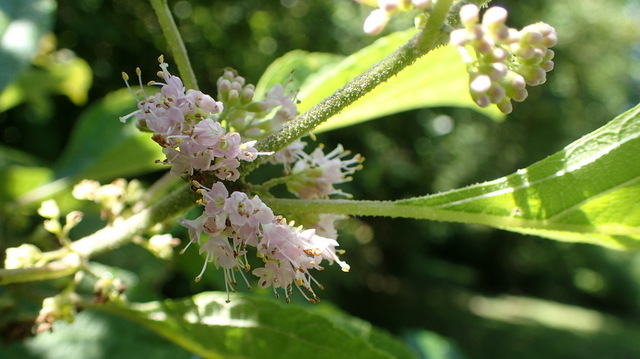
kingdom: Plantae
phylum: Tracheophyta
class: Magnoliopsida
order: Lamiales
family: Lamiaceae
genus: Callicarpa
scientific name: Callicarpa americana
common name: American beautyberry
